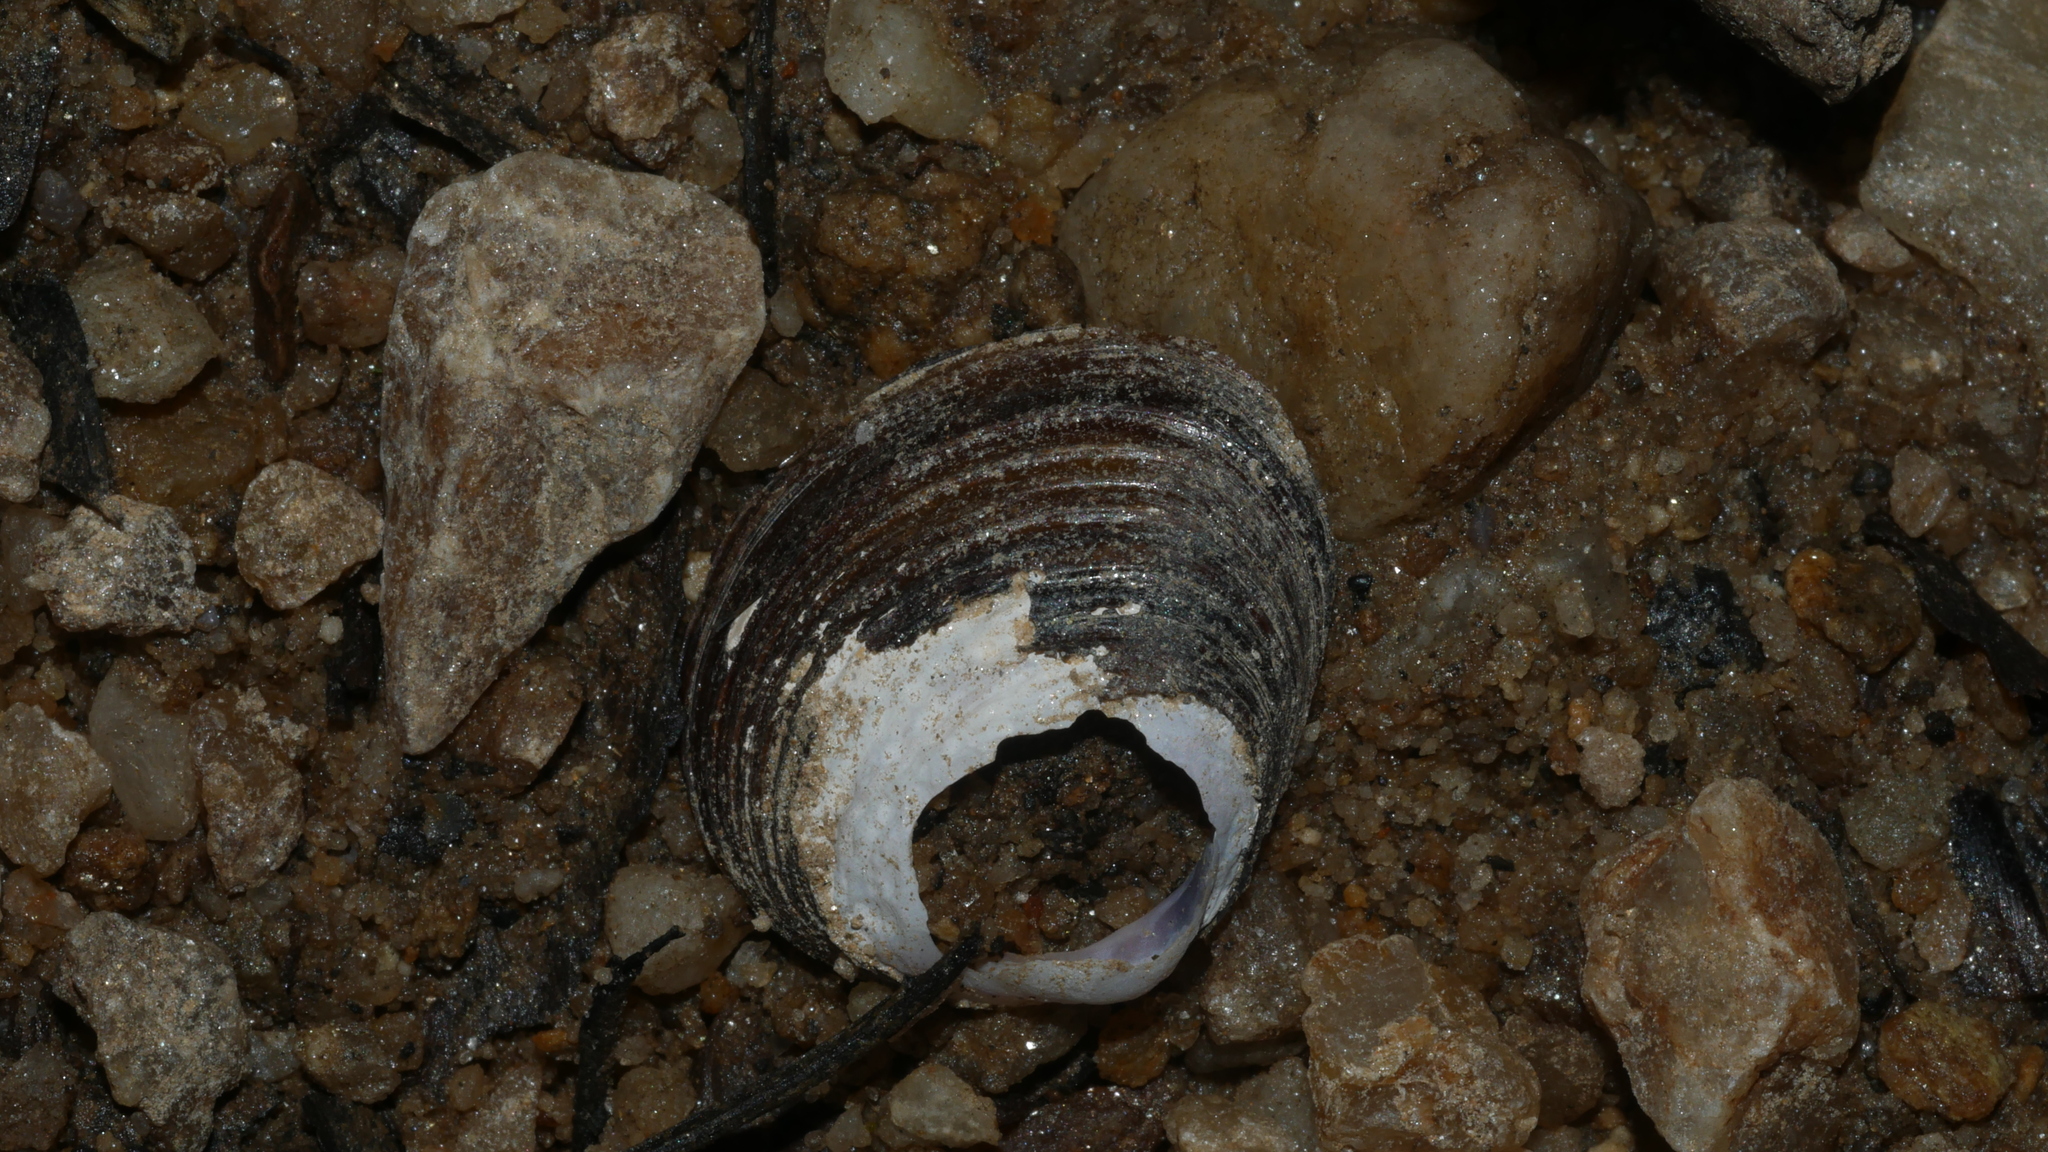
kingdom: Animalia
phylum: Mollusca
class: Bivalvia
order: Venerida
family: Cyrenidae
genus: Corbicula
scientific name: Corbicula fluminea
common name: Asian clam
